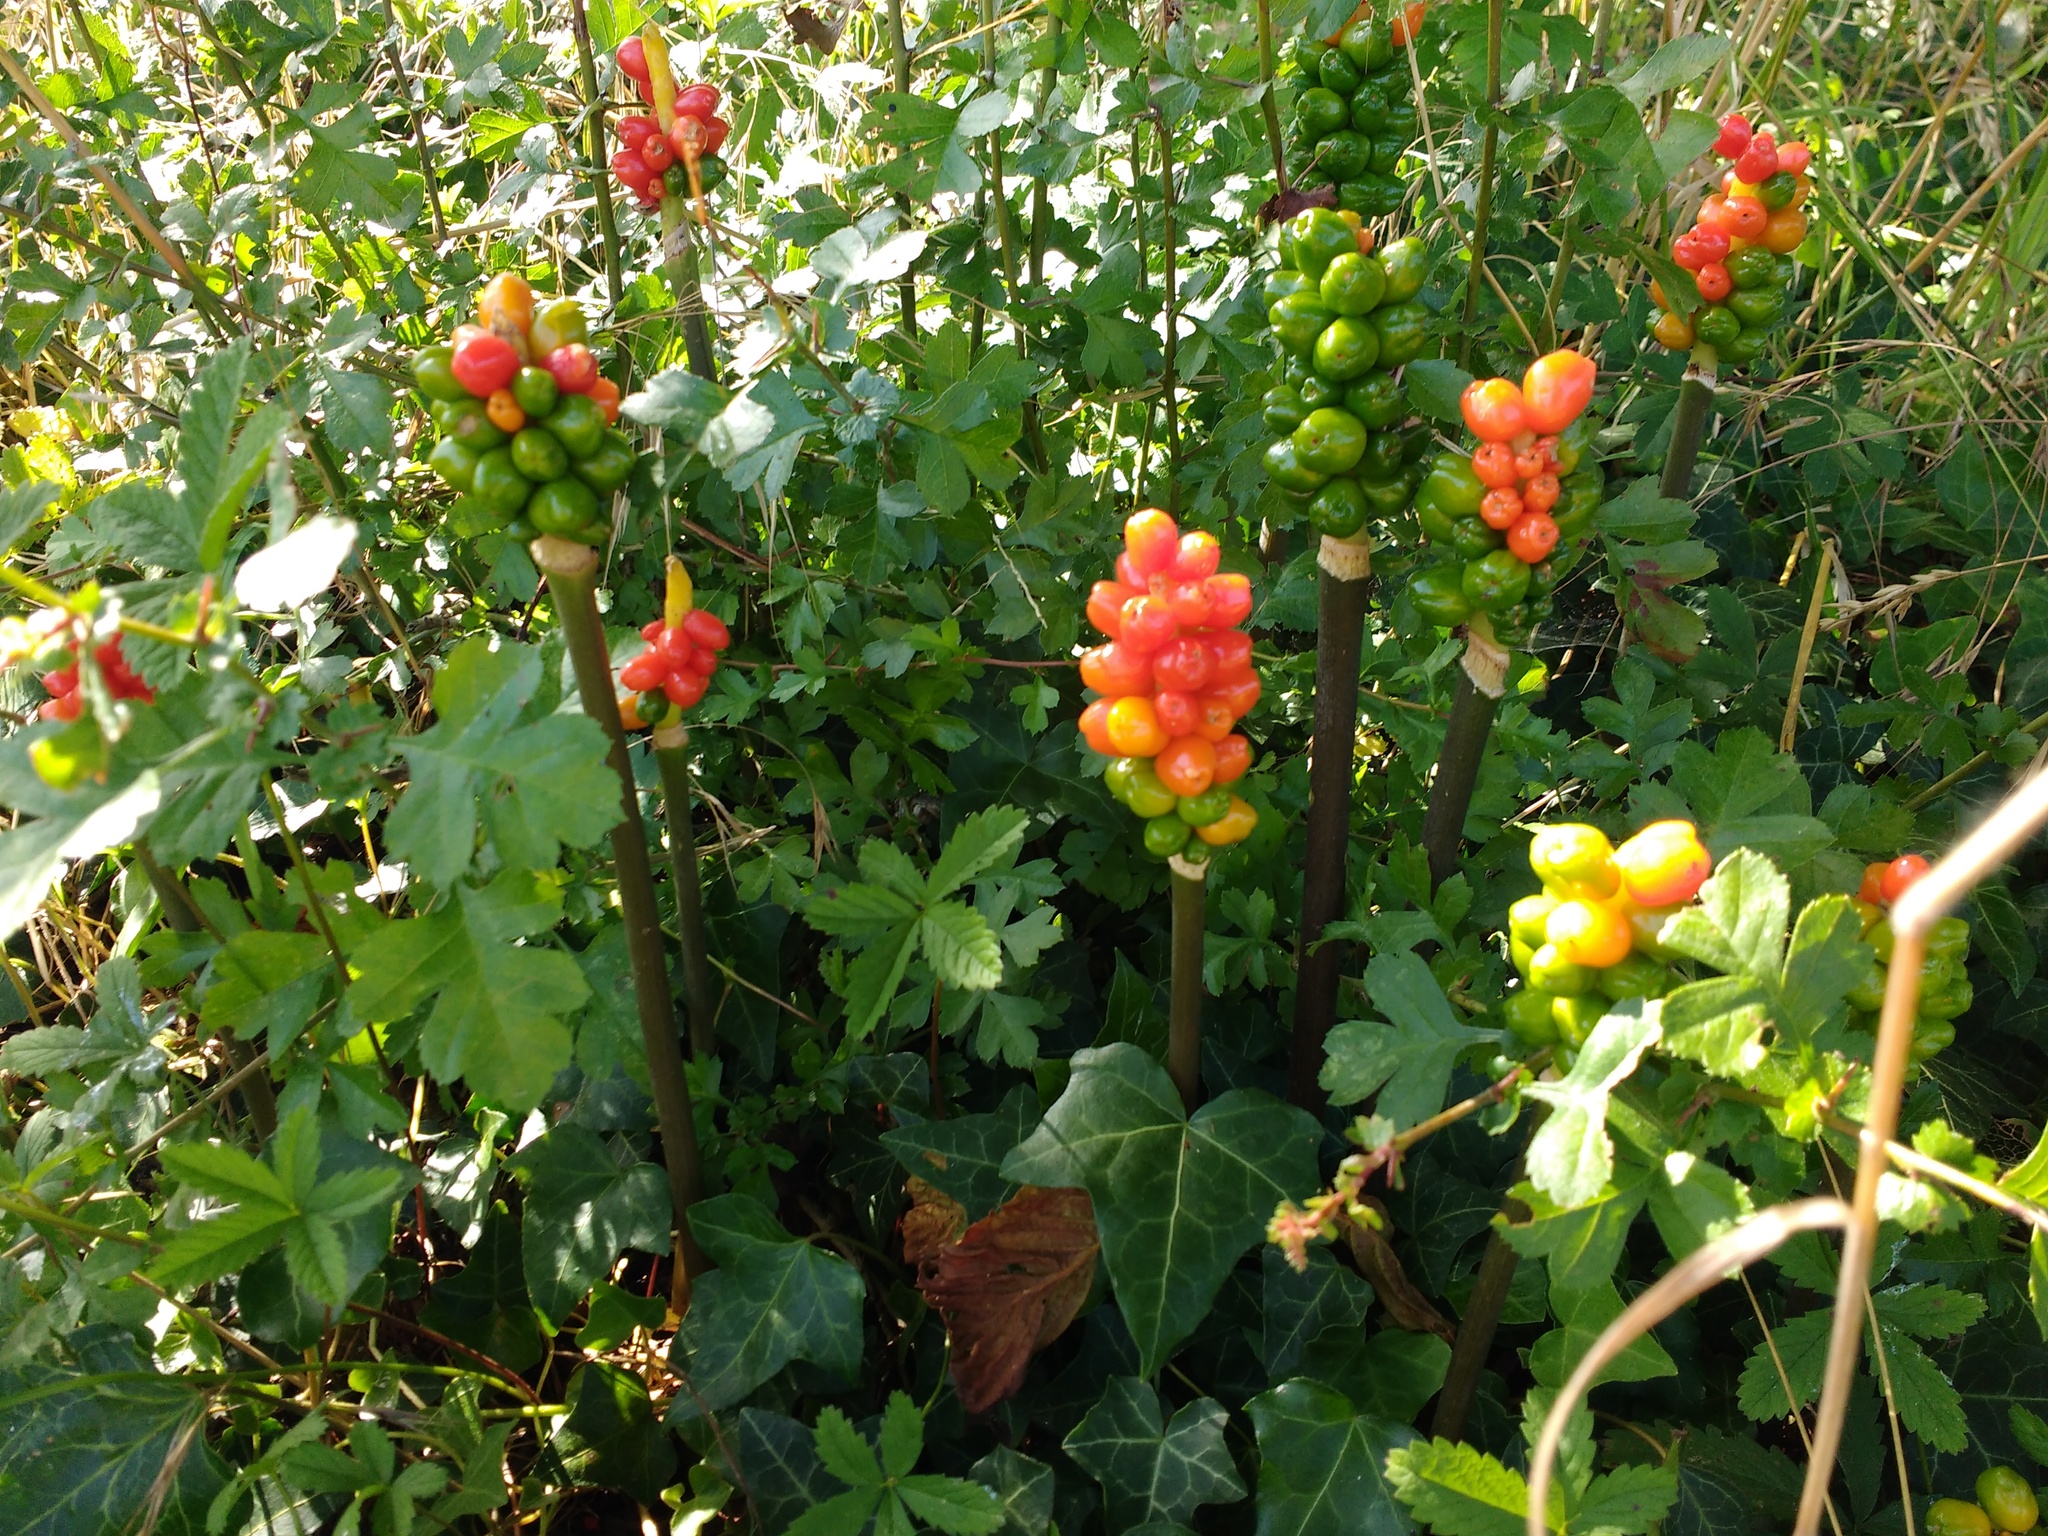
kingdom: Plantae
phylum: Tracheophyta
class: Liliopsida
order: Alismatales
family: Araceae
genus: Arum
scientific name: Arum maculatum
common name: Lords-and-ladies
